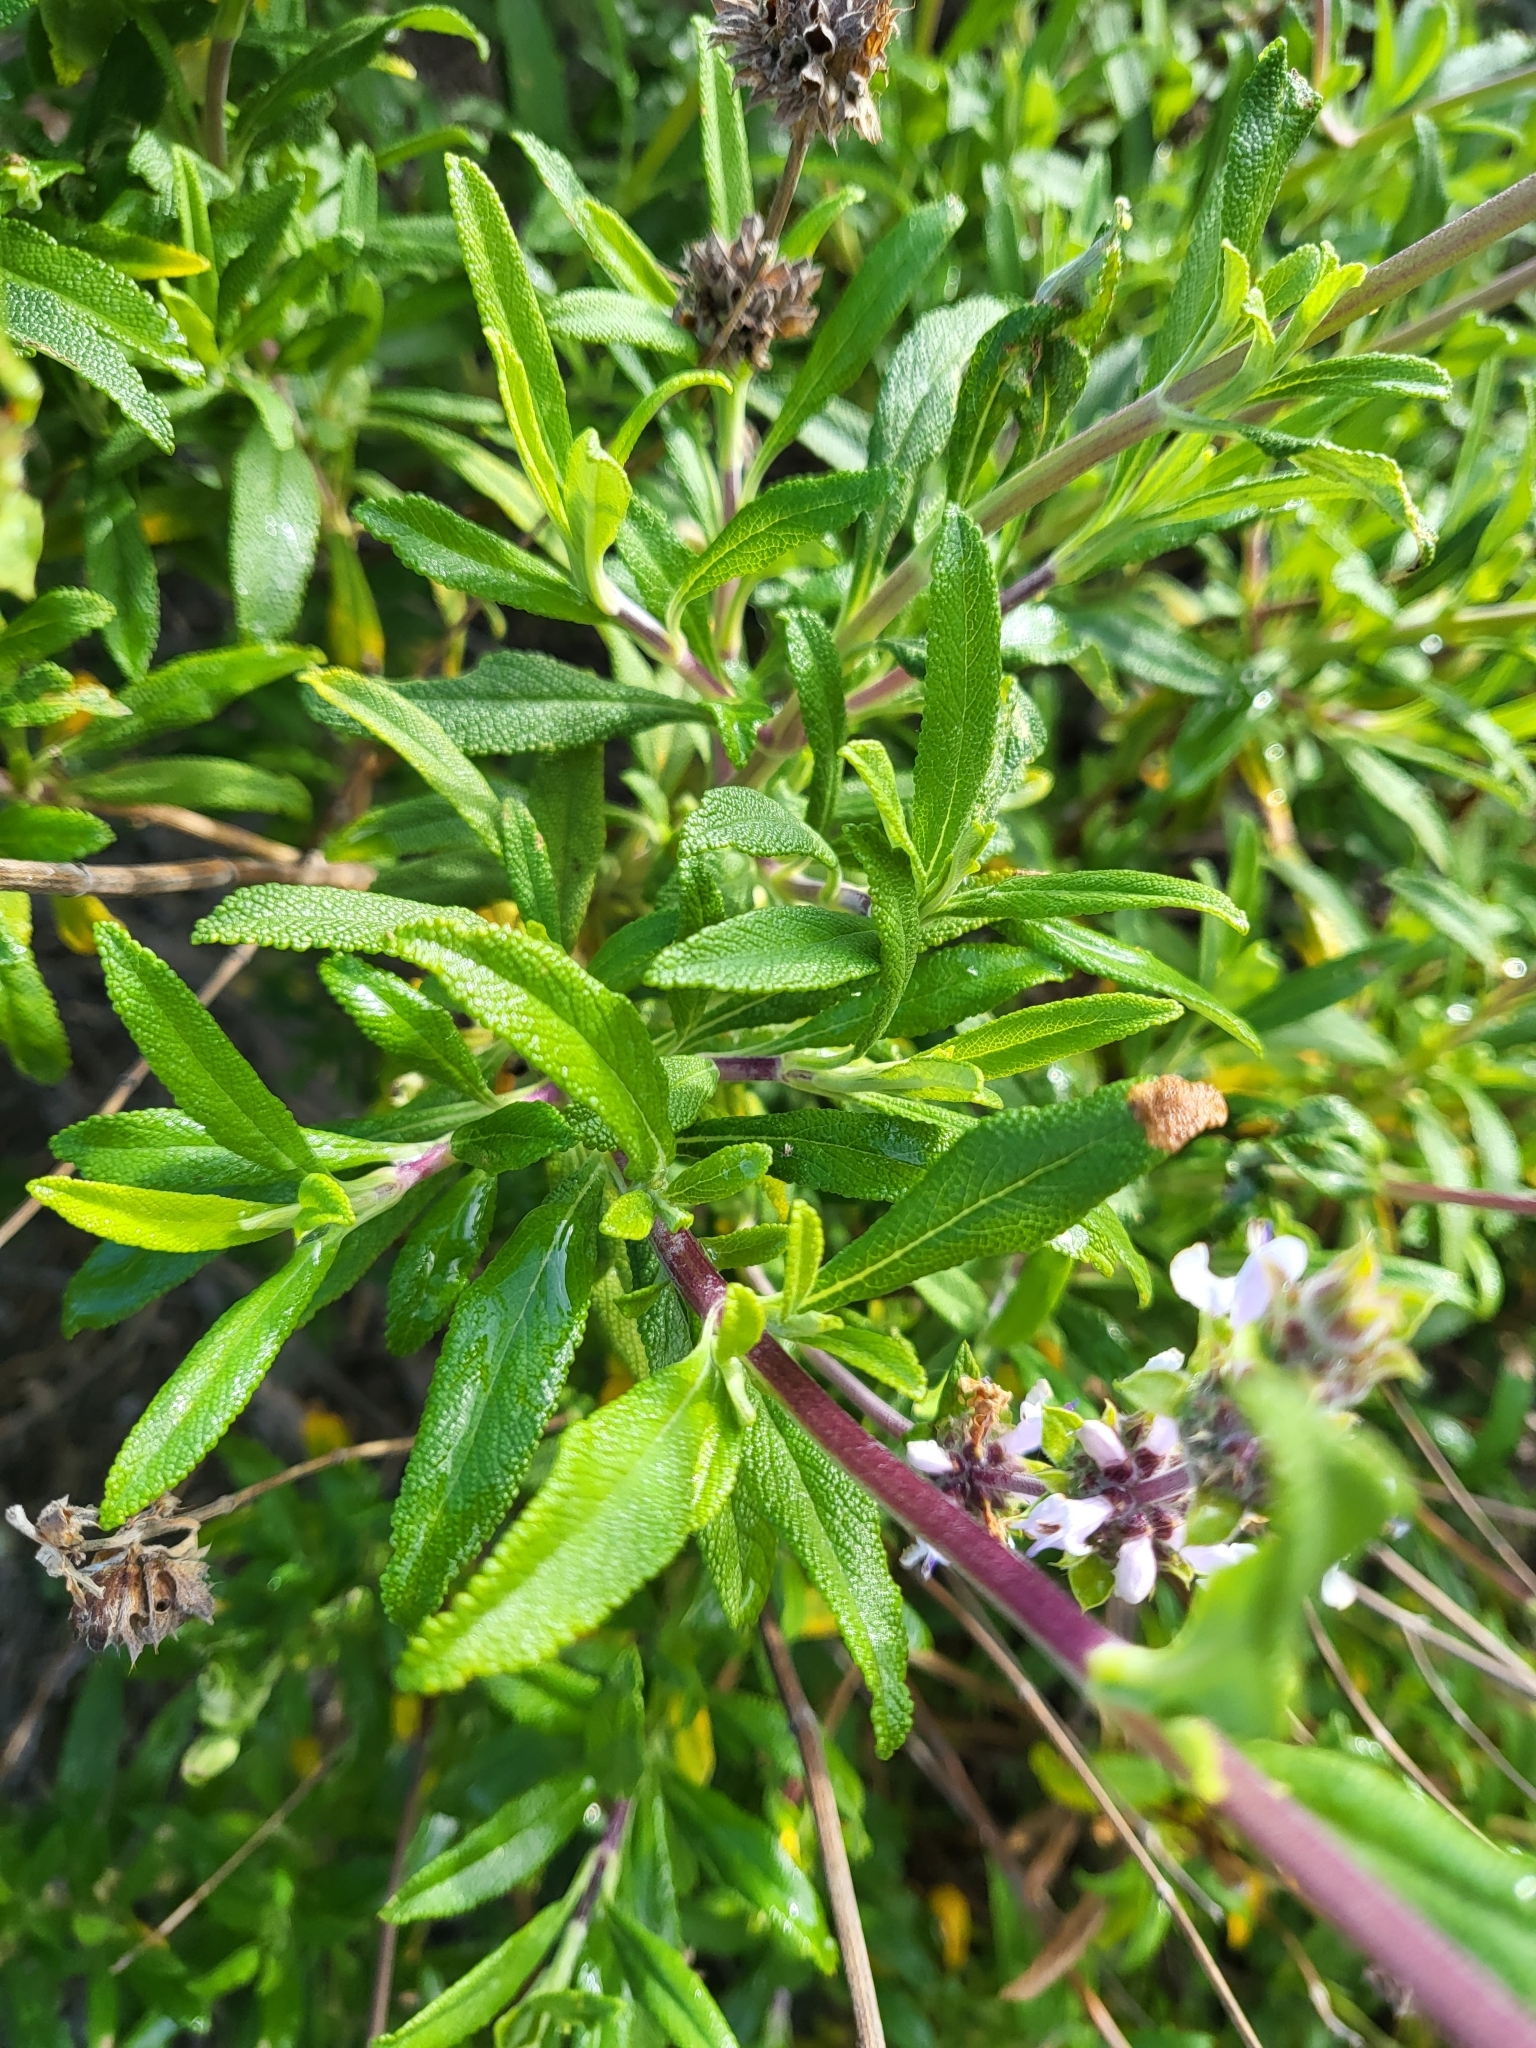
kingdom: Plantae
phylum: Tracheophyta
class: Magnoliopsida
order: Lamiales
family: Lamiaceae
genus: Salvia
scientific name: Salvia mellifera
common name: Black sage
